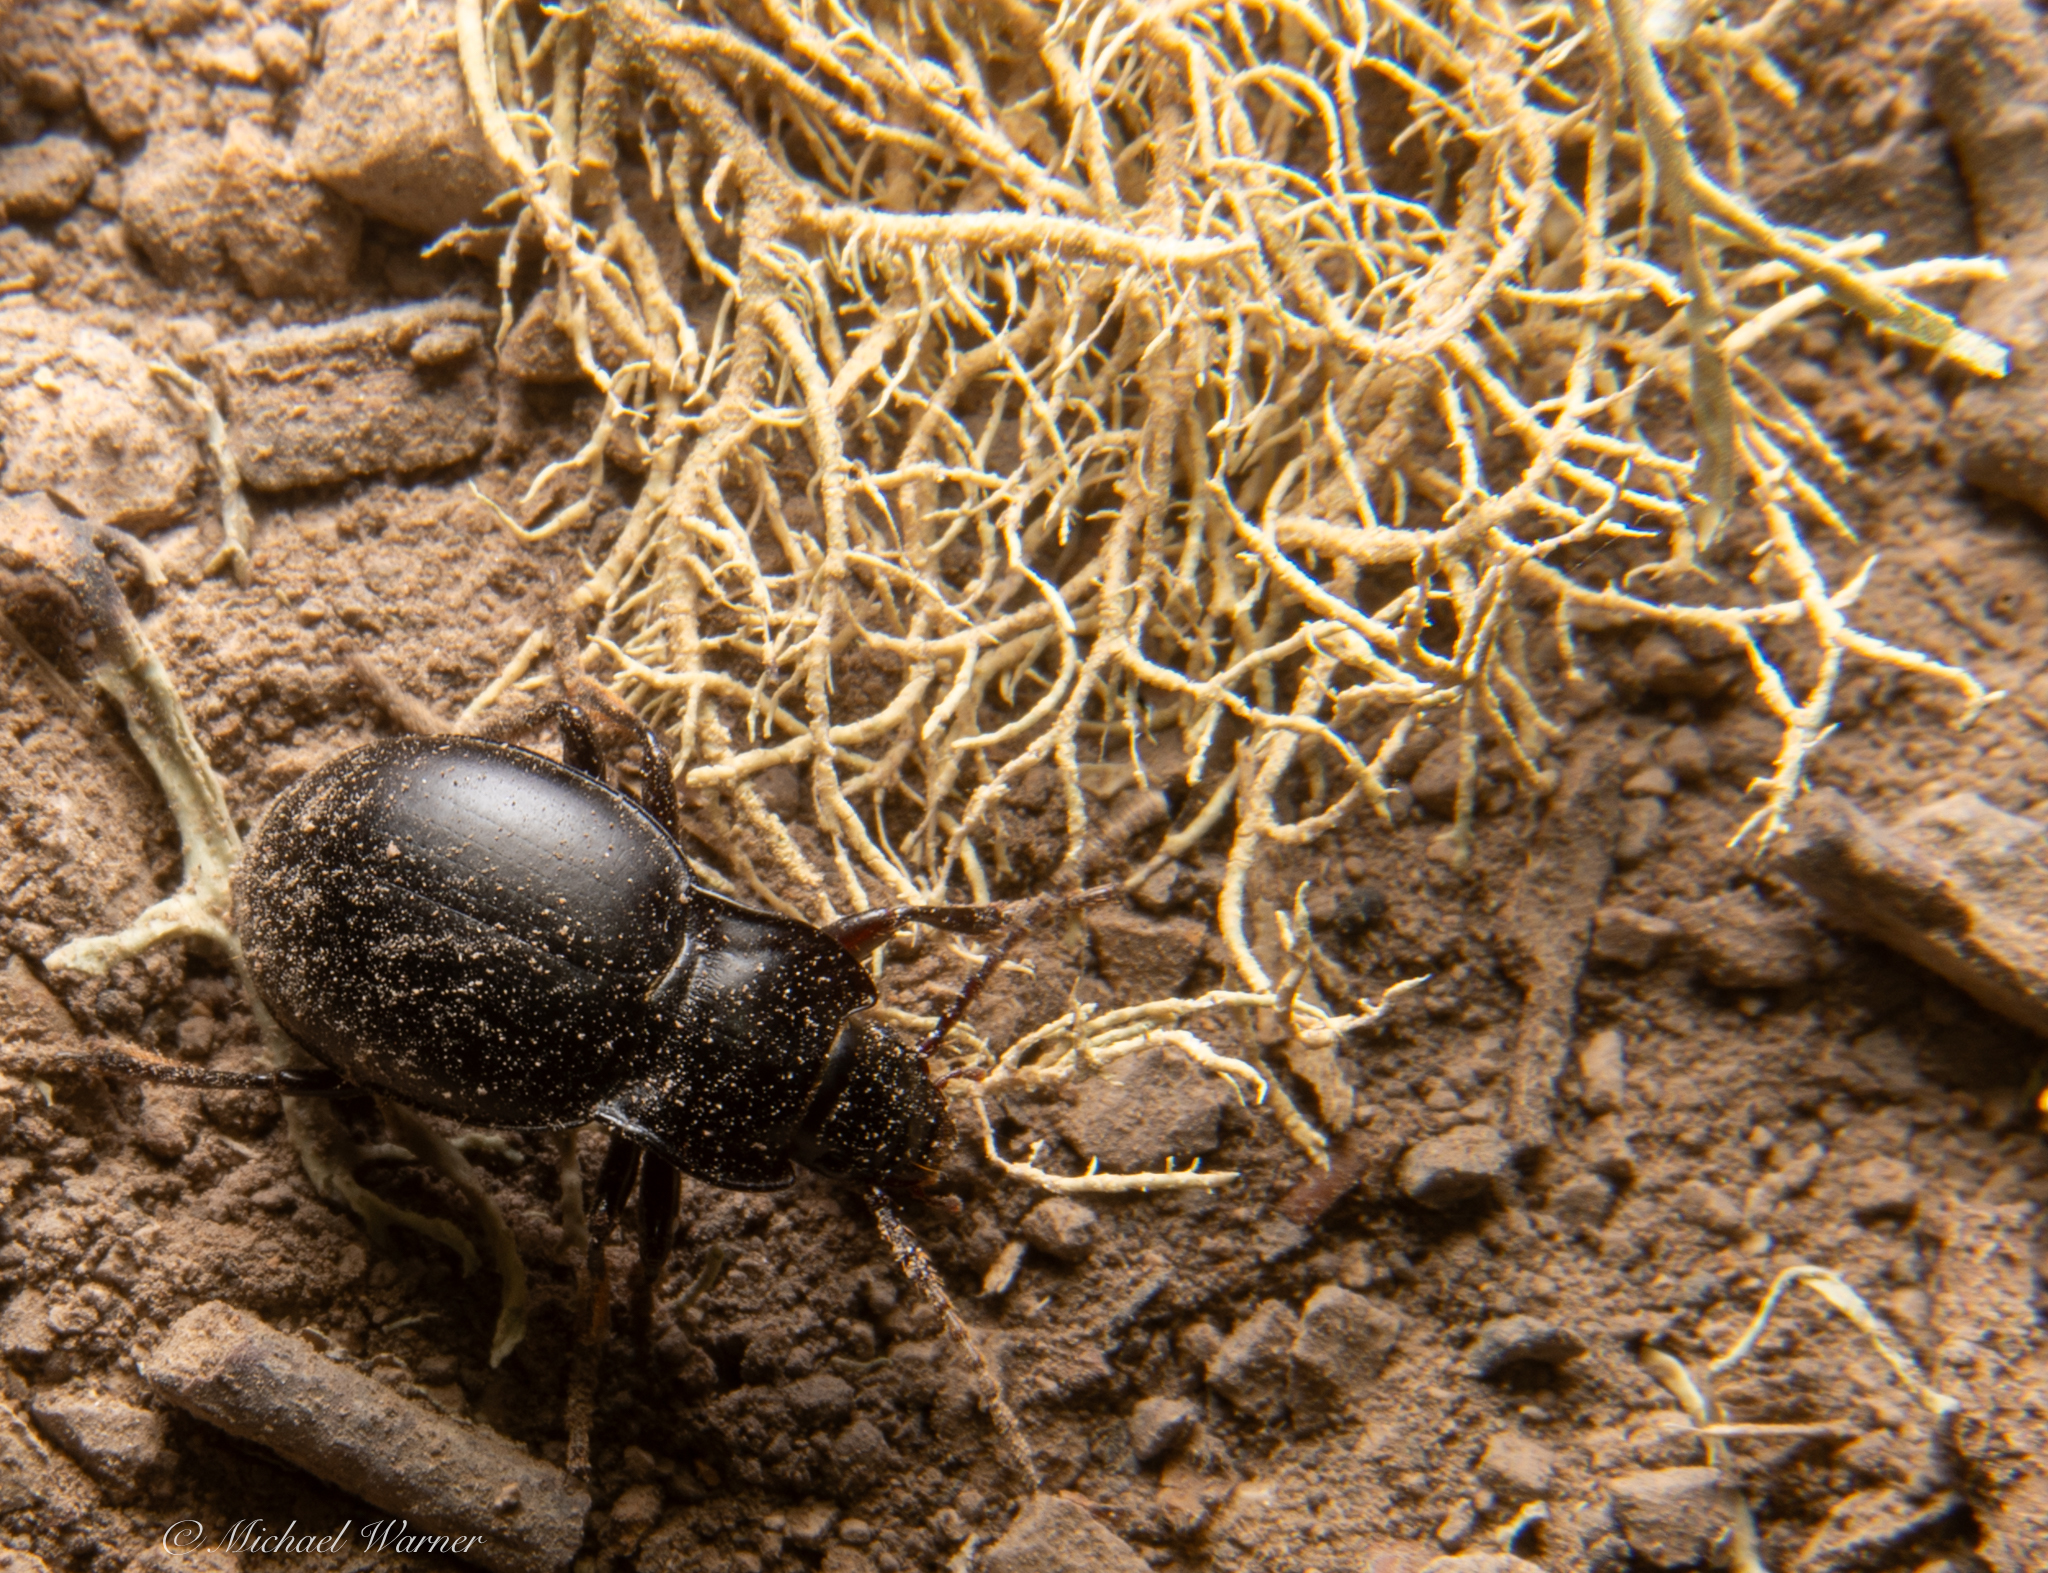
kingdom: Animalia
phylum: Arthropoda
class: Insecta
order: Coleoptera
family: Carabidae
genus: Metrius
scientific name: Metrius contractus
